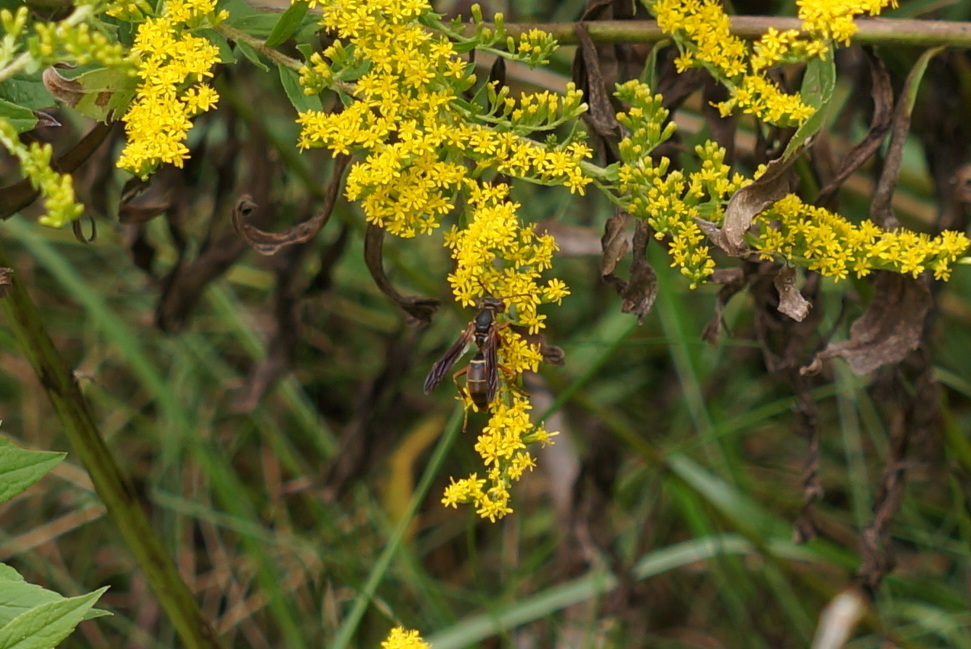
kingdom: Animalia
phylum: Arthropoda
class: Insecta
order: Hymenoptera
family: Eumenidae
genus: Polistes
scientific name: Polistes fuscatus
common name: Dark paper wasp
